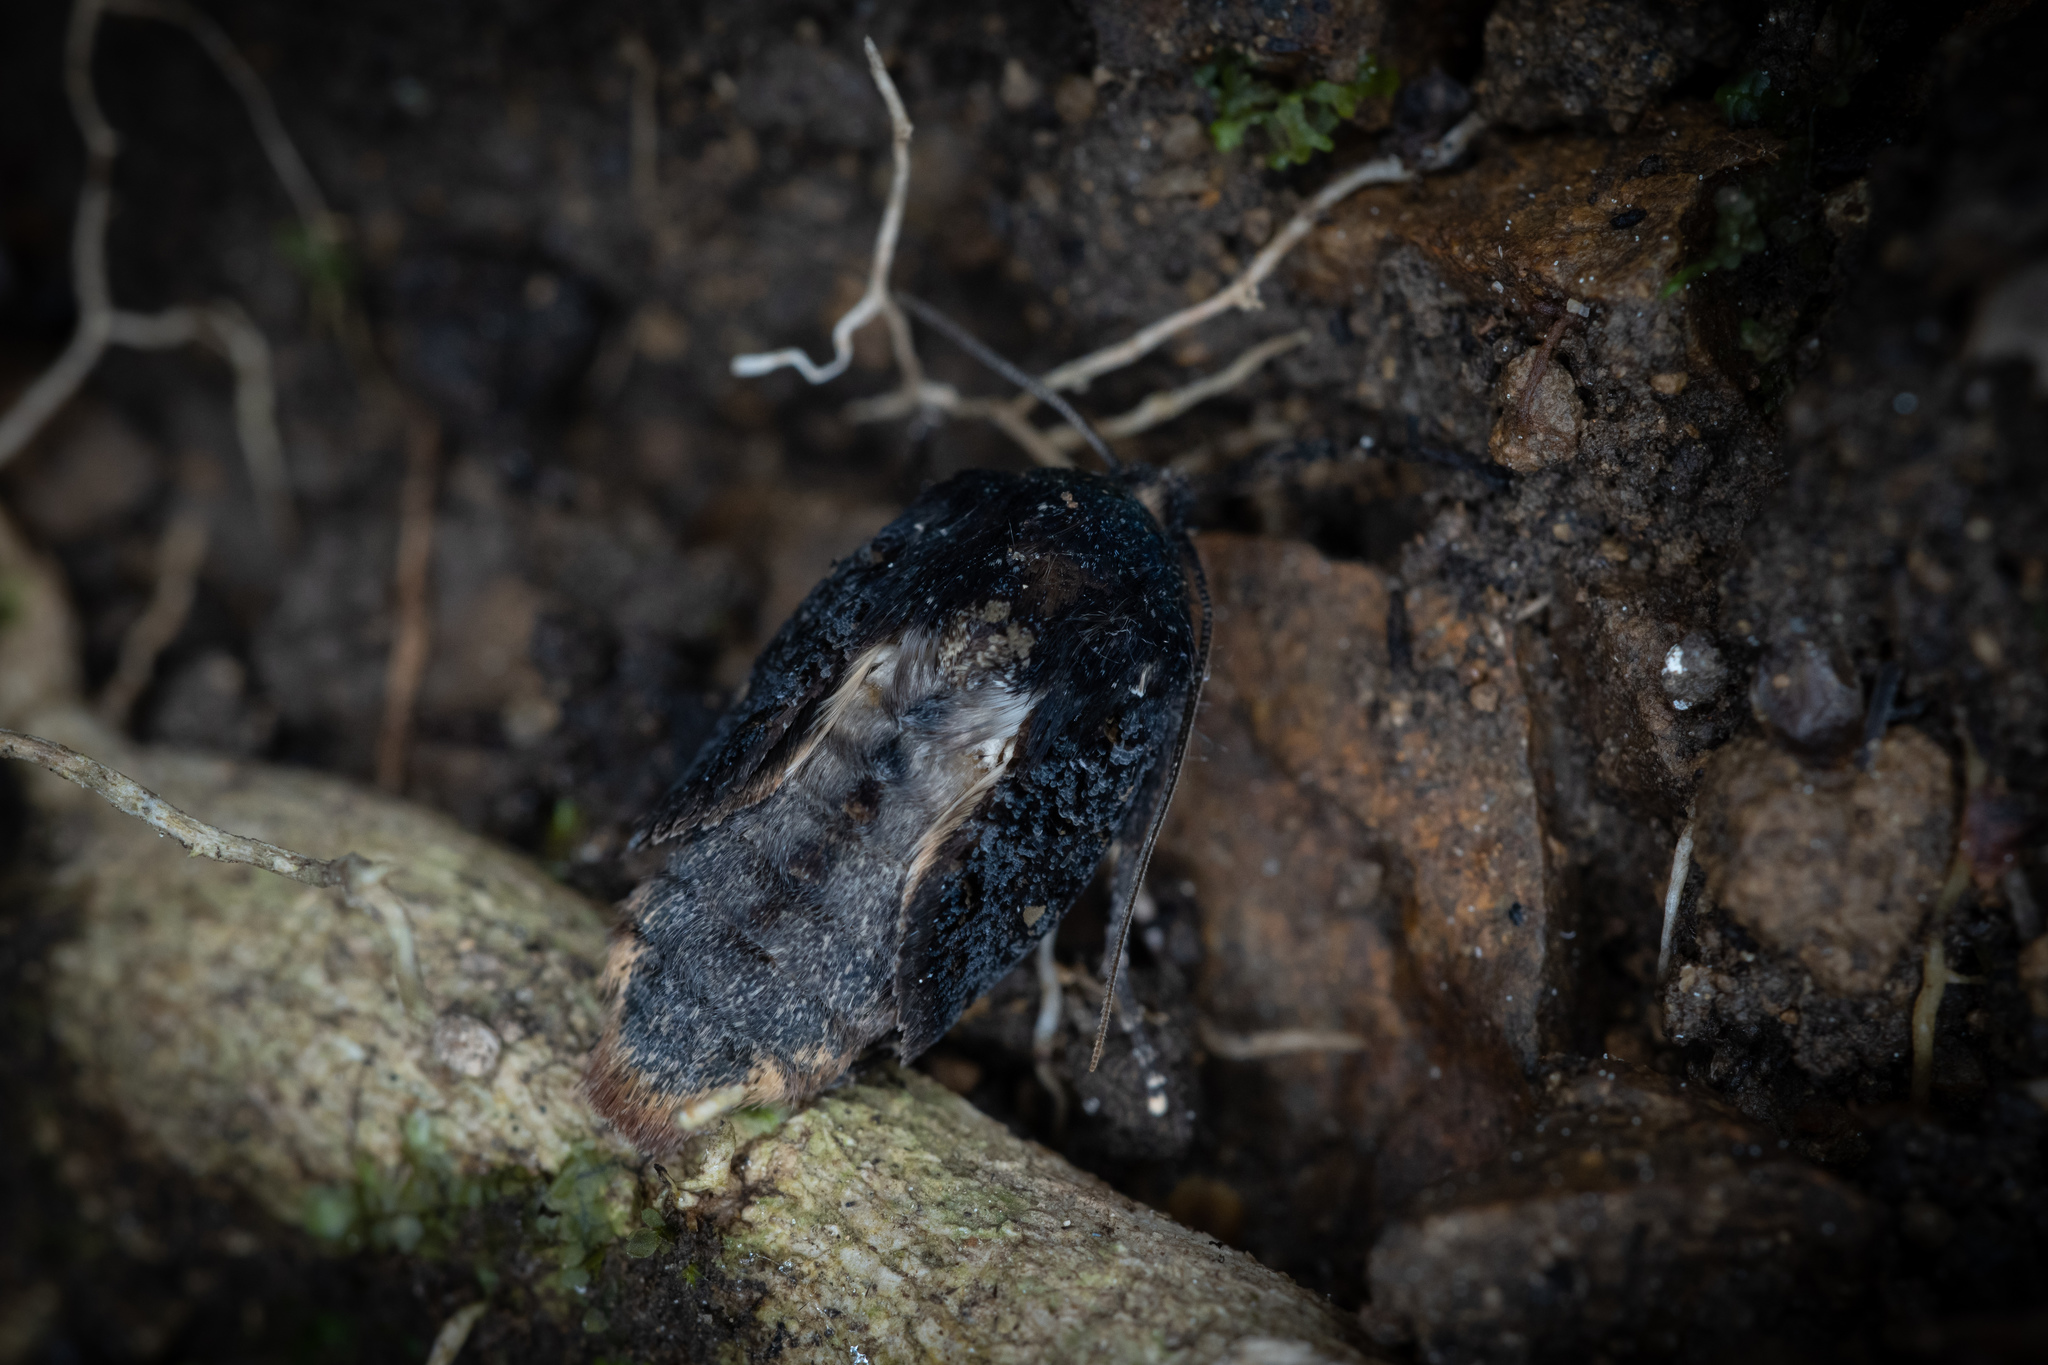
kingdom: Animalia
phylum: Arthropoda
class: Insecta
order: Lepidoptera
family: Noctuidae
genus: Meterana
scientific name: Meterana vitiosa
